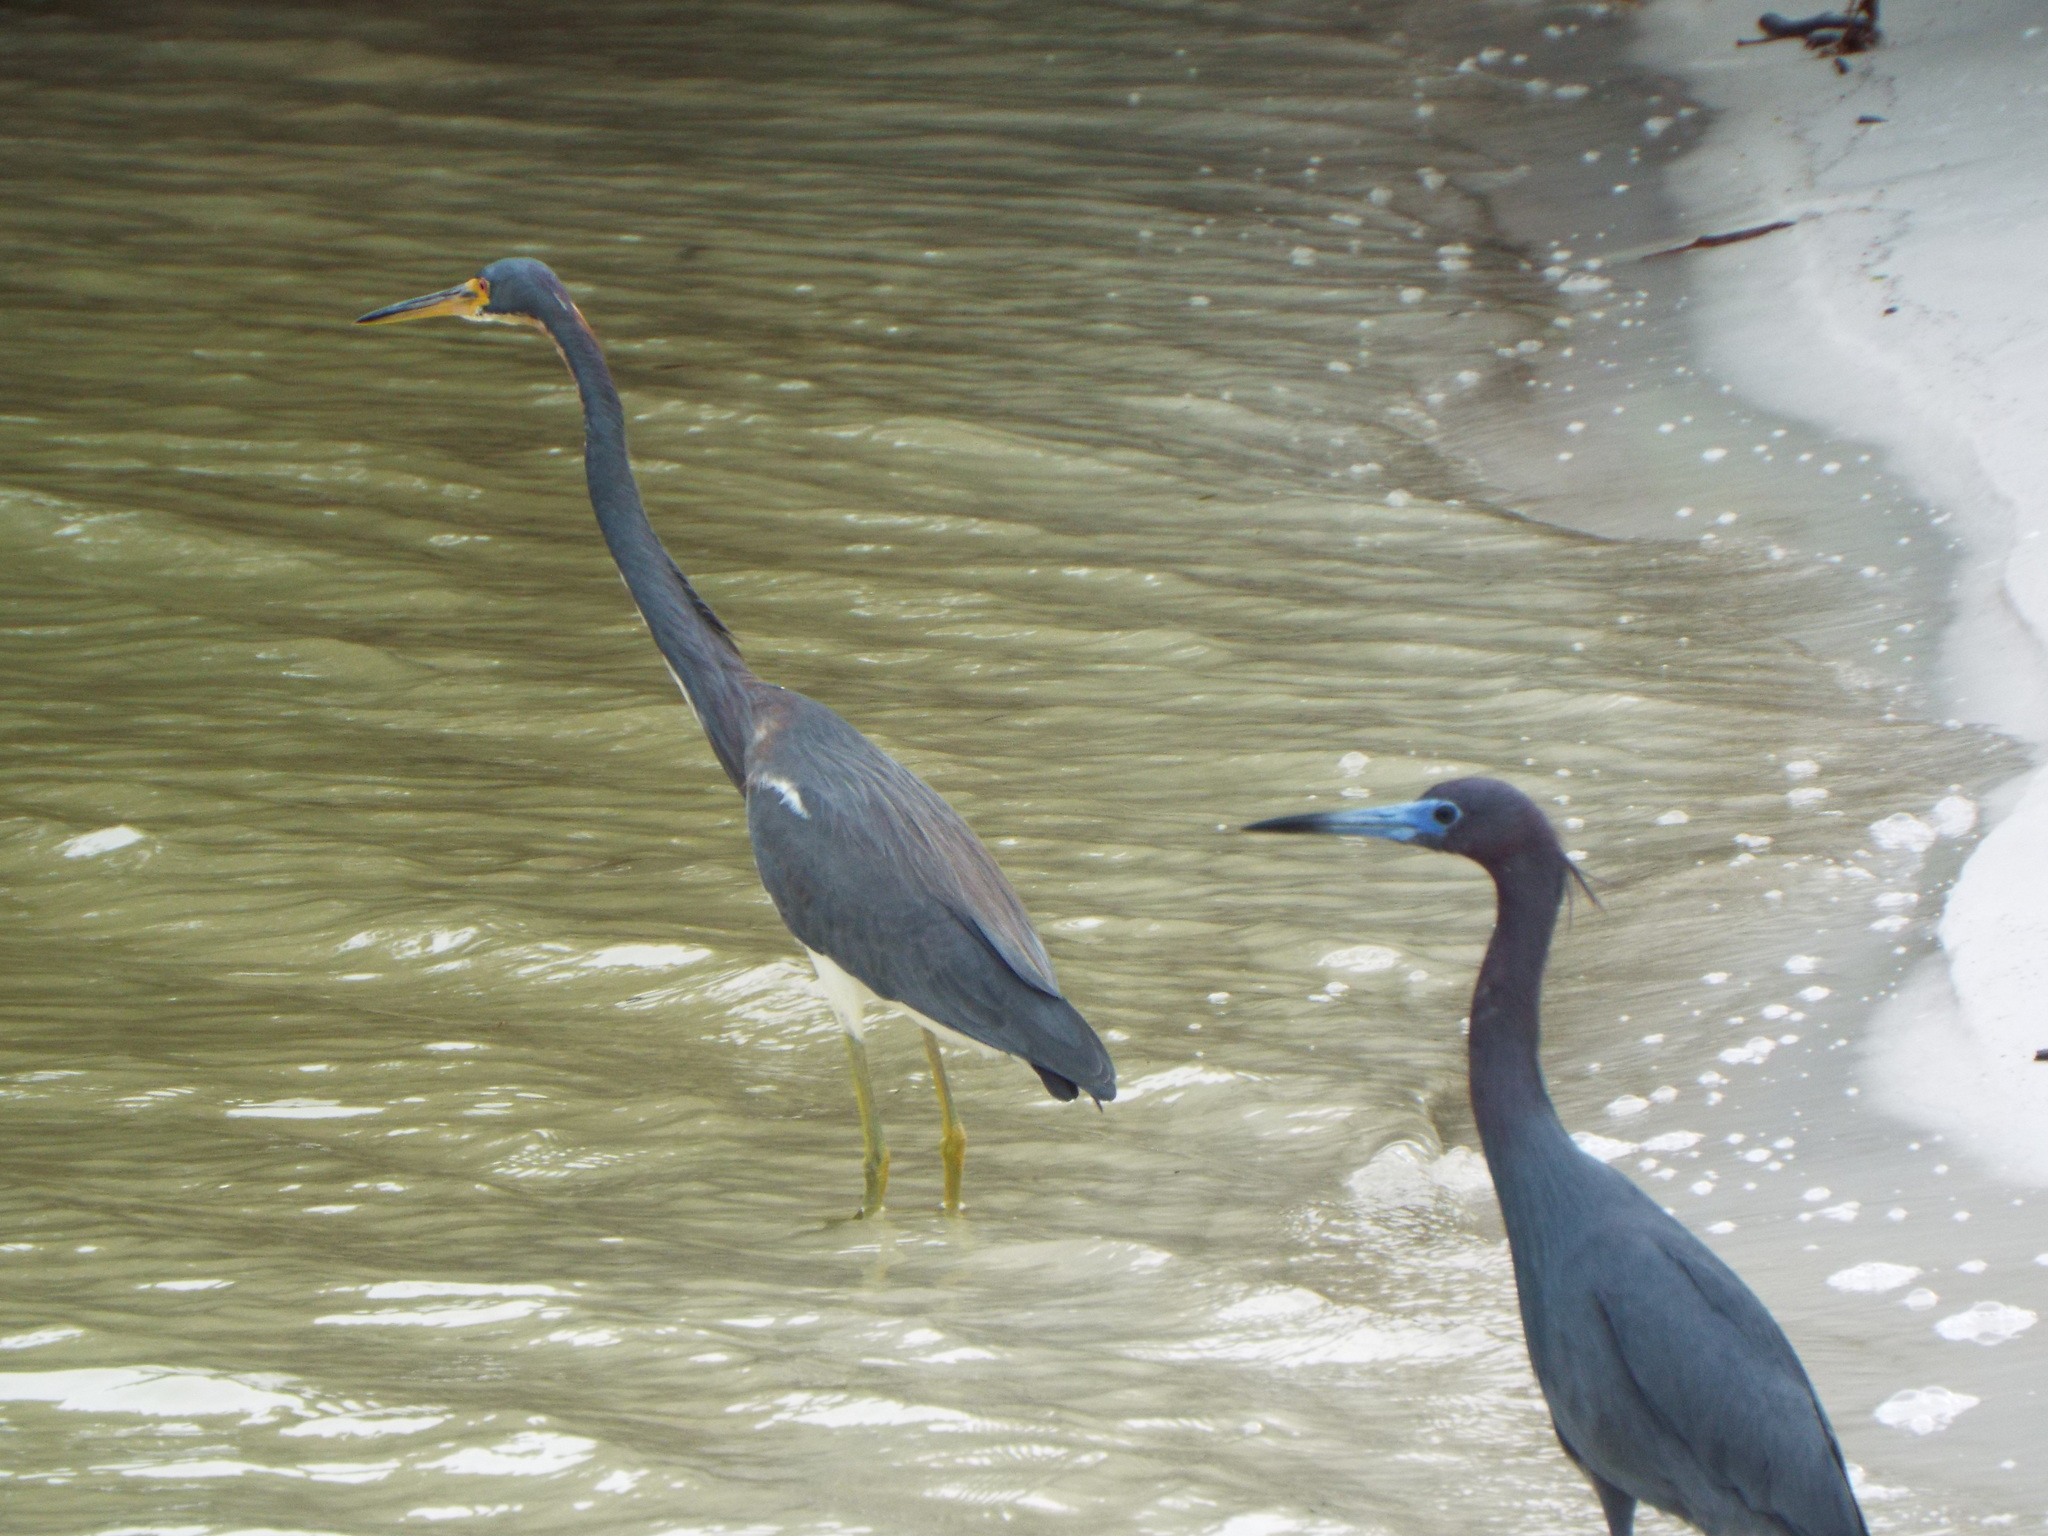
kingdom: Animalia
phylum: Chordata
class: Aves
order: Pelecaniformes
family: Ardeidae
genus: Egretta
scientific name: Egretta caerulea
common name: Little blue heron
